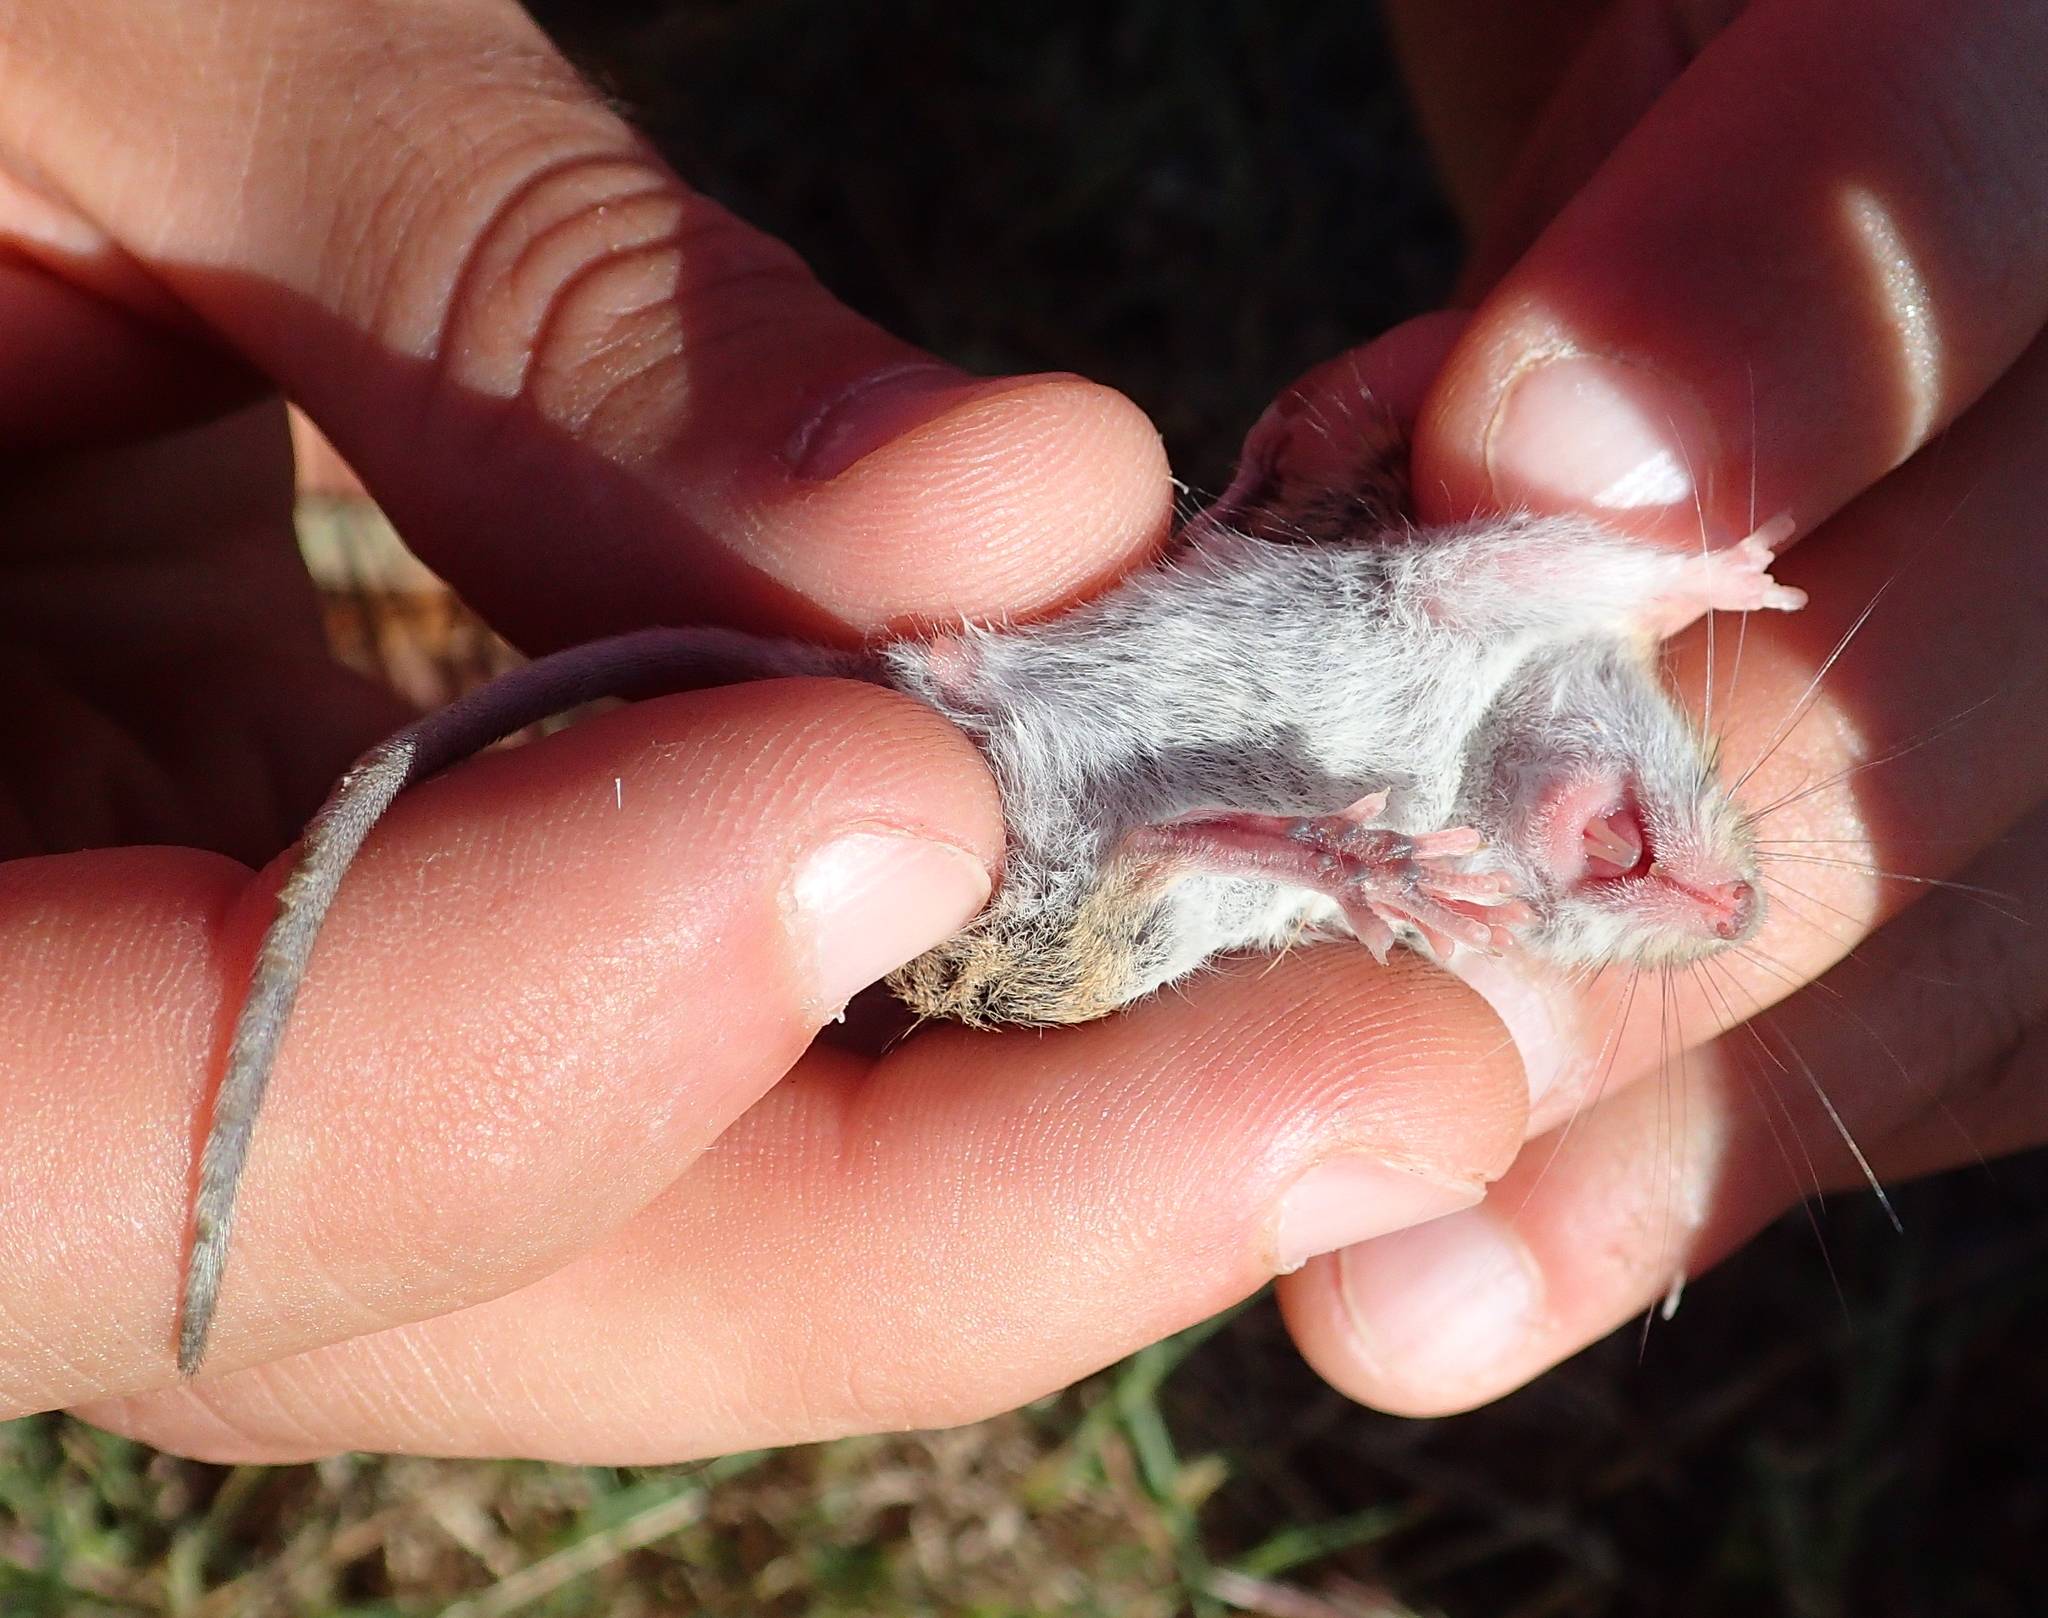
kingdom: Animalia
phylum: Chordata
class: Mammalia
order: Rodentia
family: Muridae
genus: Mus
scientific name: Mus spretus
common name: Western mediterranean mouse
